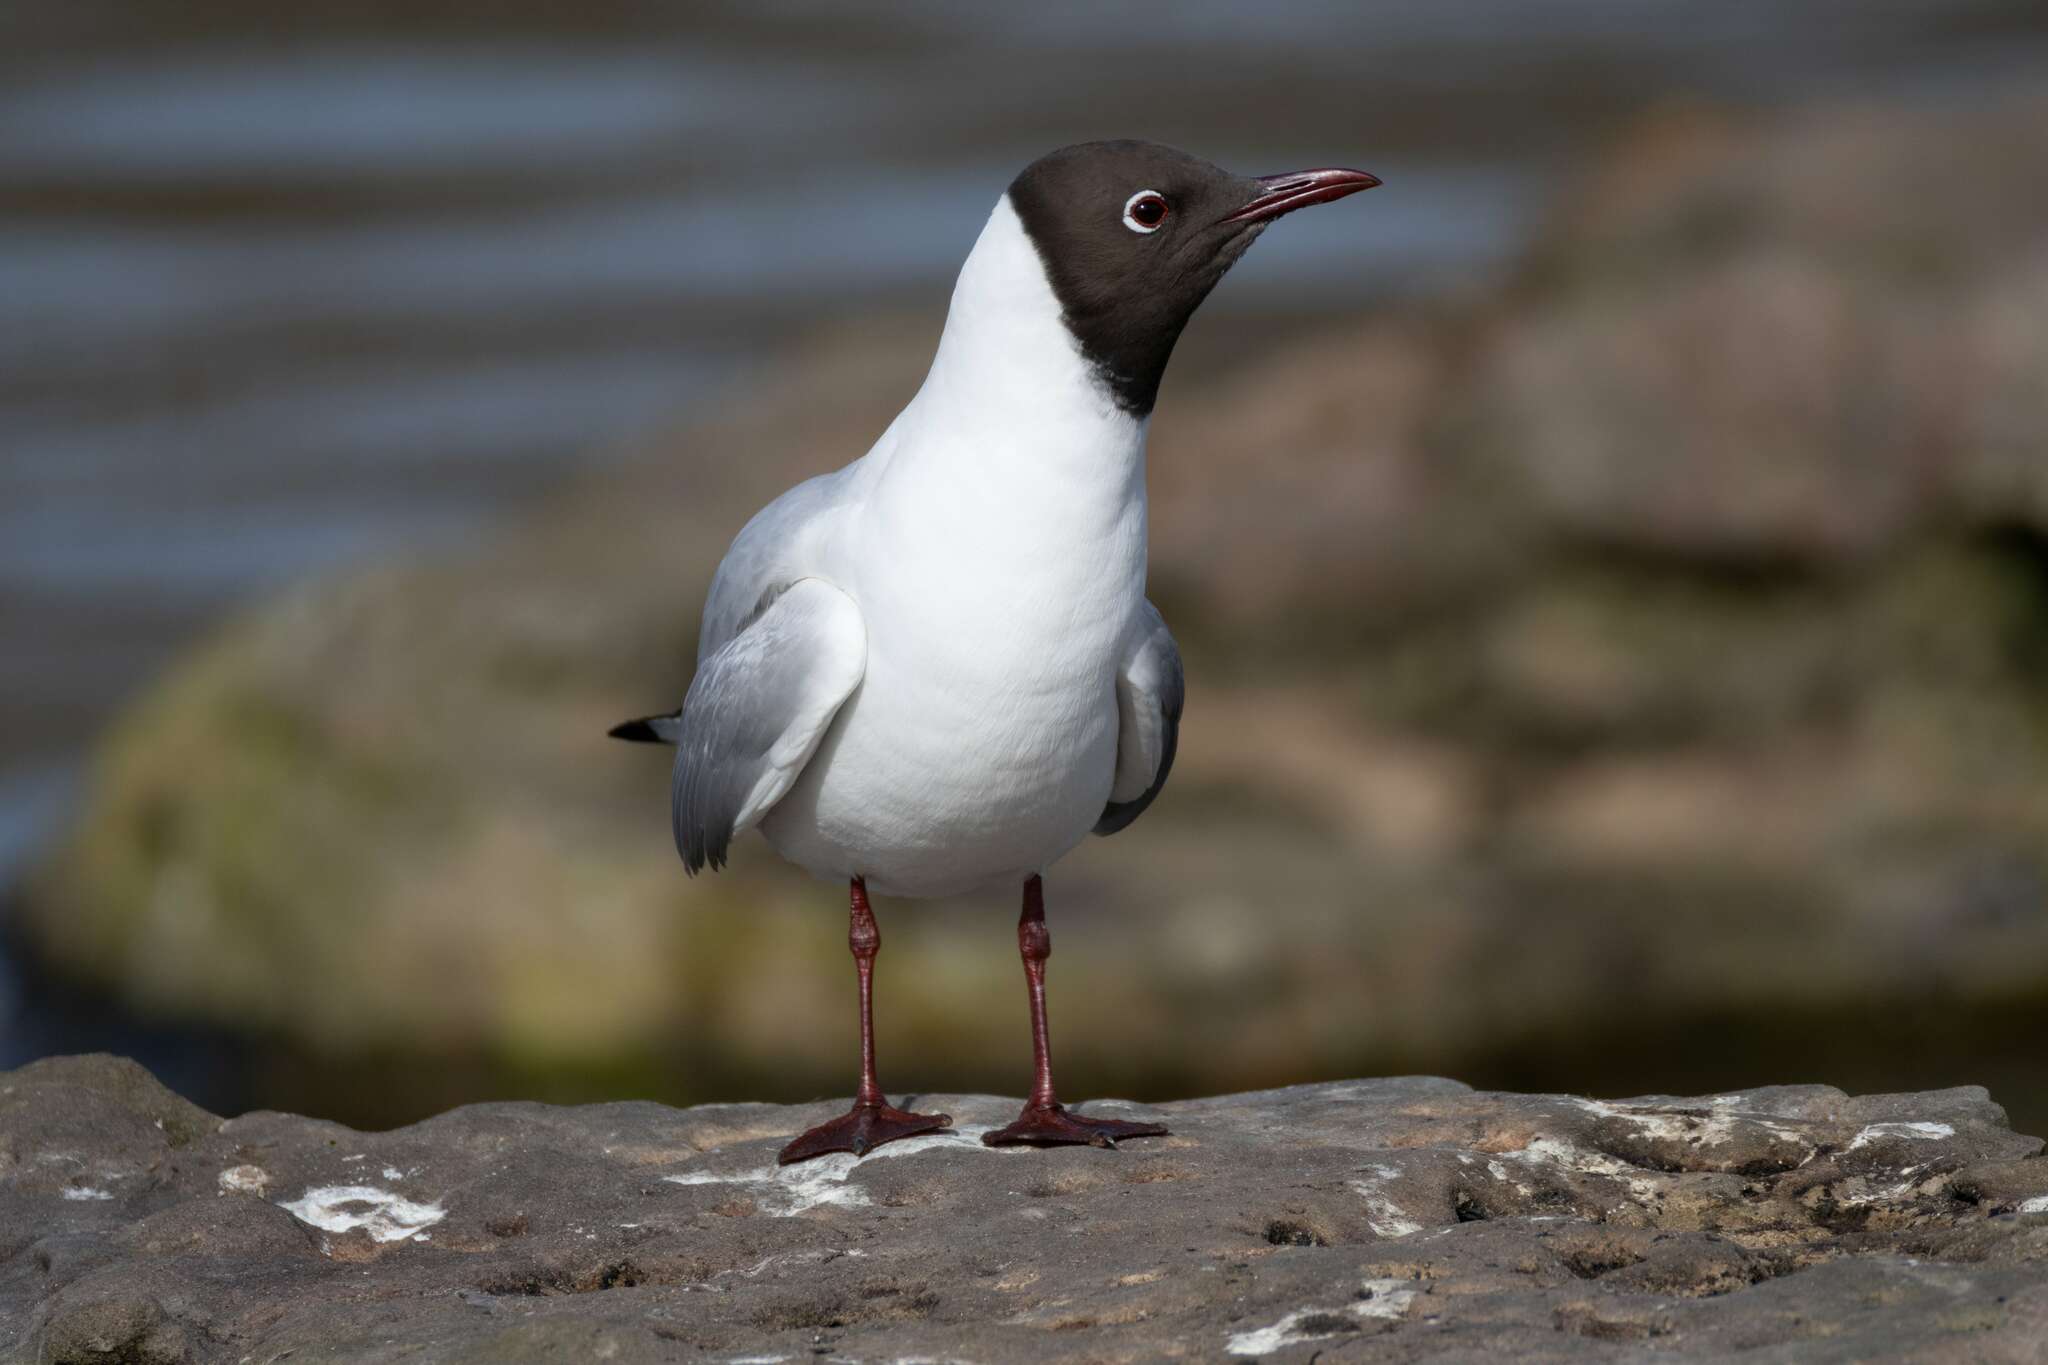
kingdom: Animalia
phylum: Chordata
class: Aves
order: Charadriiformes
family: Laridae
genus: Chroicocephalus
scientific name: Chroicocephalus ridibundus
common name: Black-headed gull
